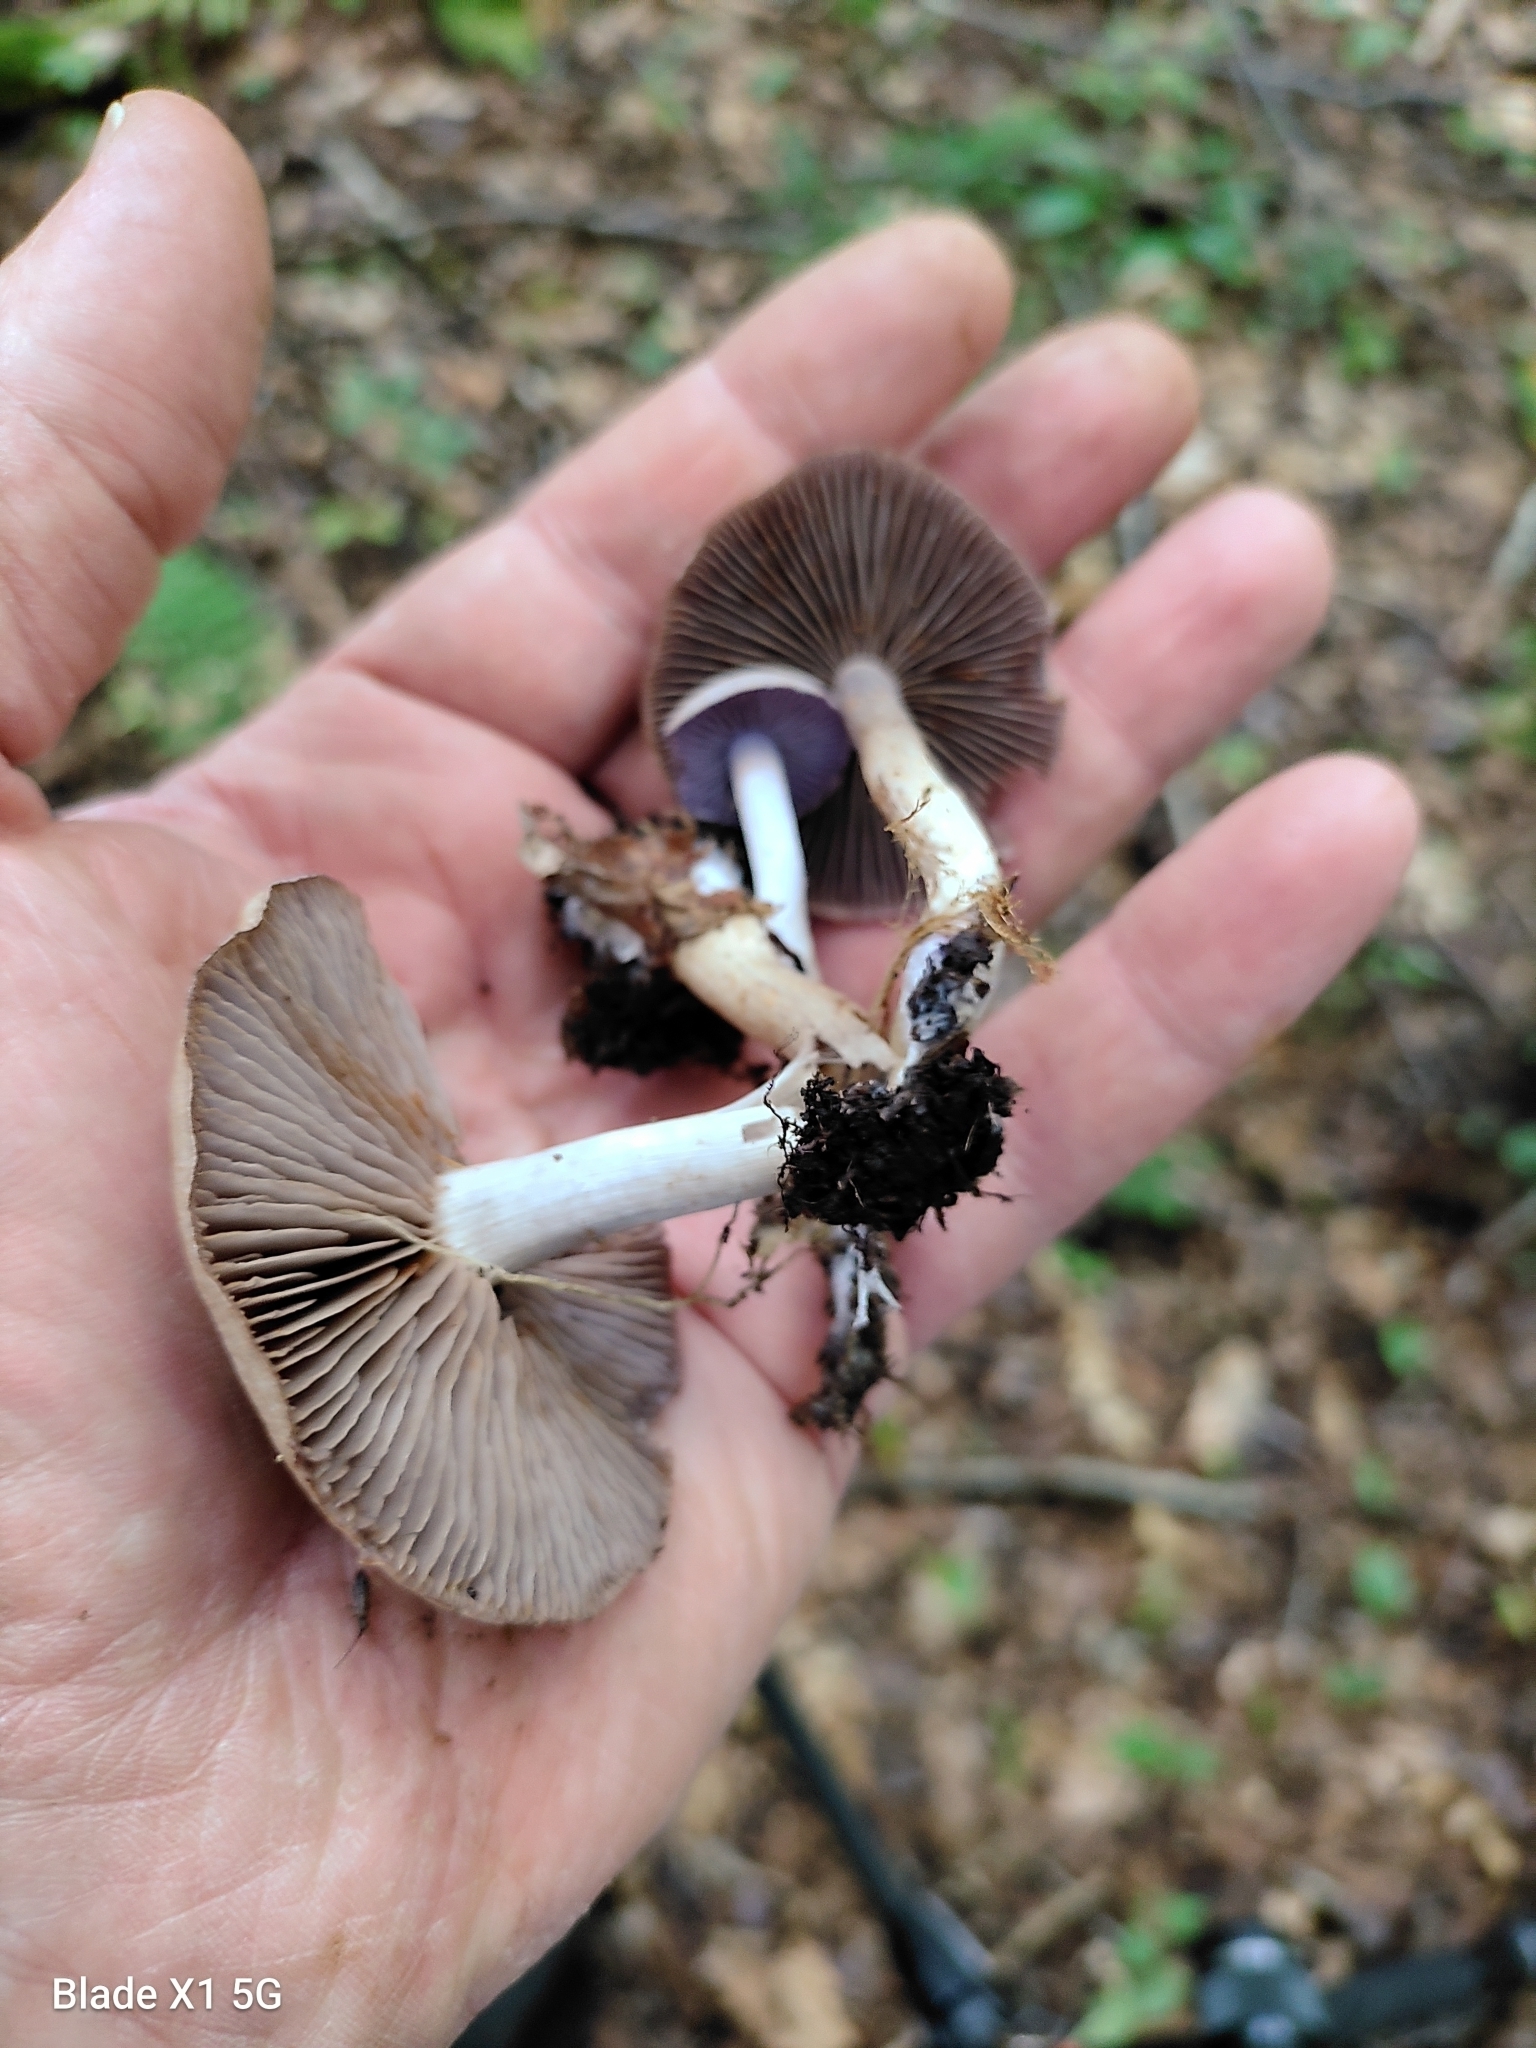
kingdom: Fungi
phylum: Basidiomycota
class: Agaricomycetes
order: Agaricales
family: Cortinariaceae
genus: Cortinarius
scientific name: Cortinarius anomalus
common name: Variable webcap
